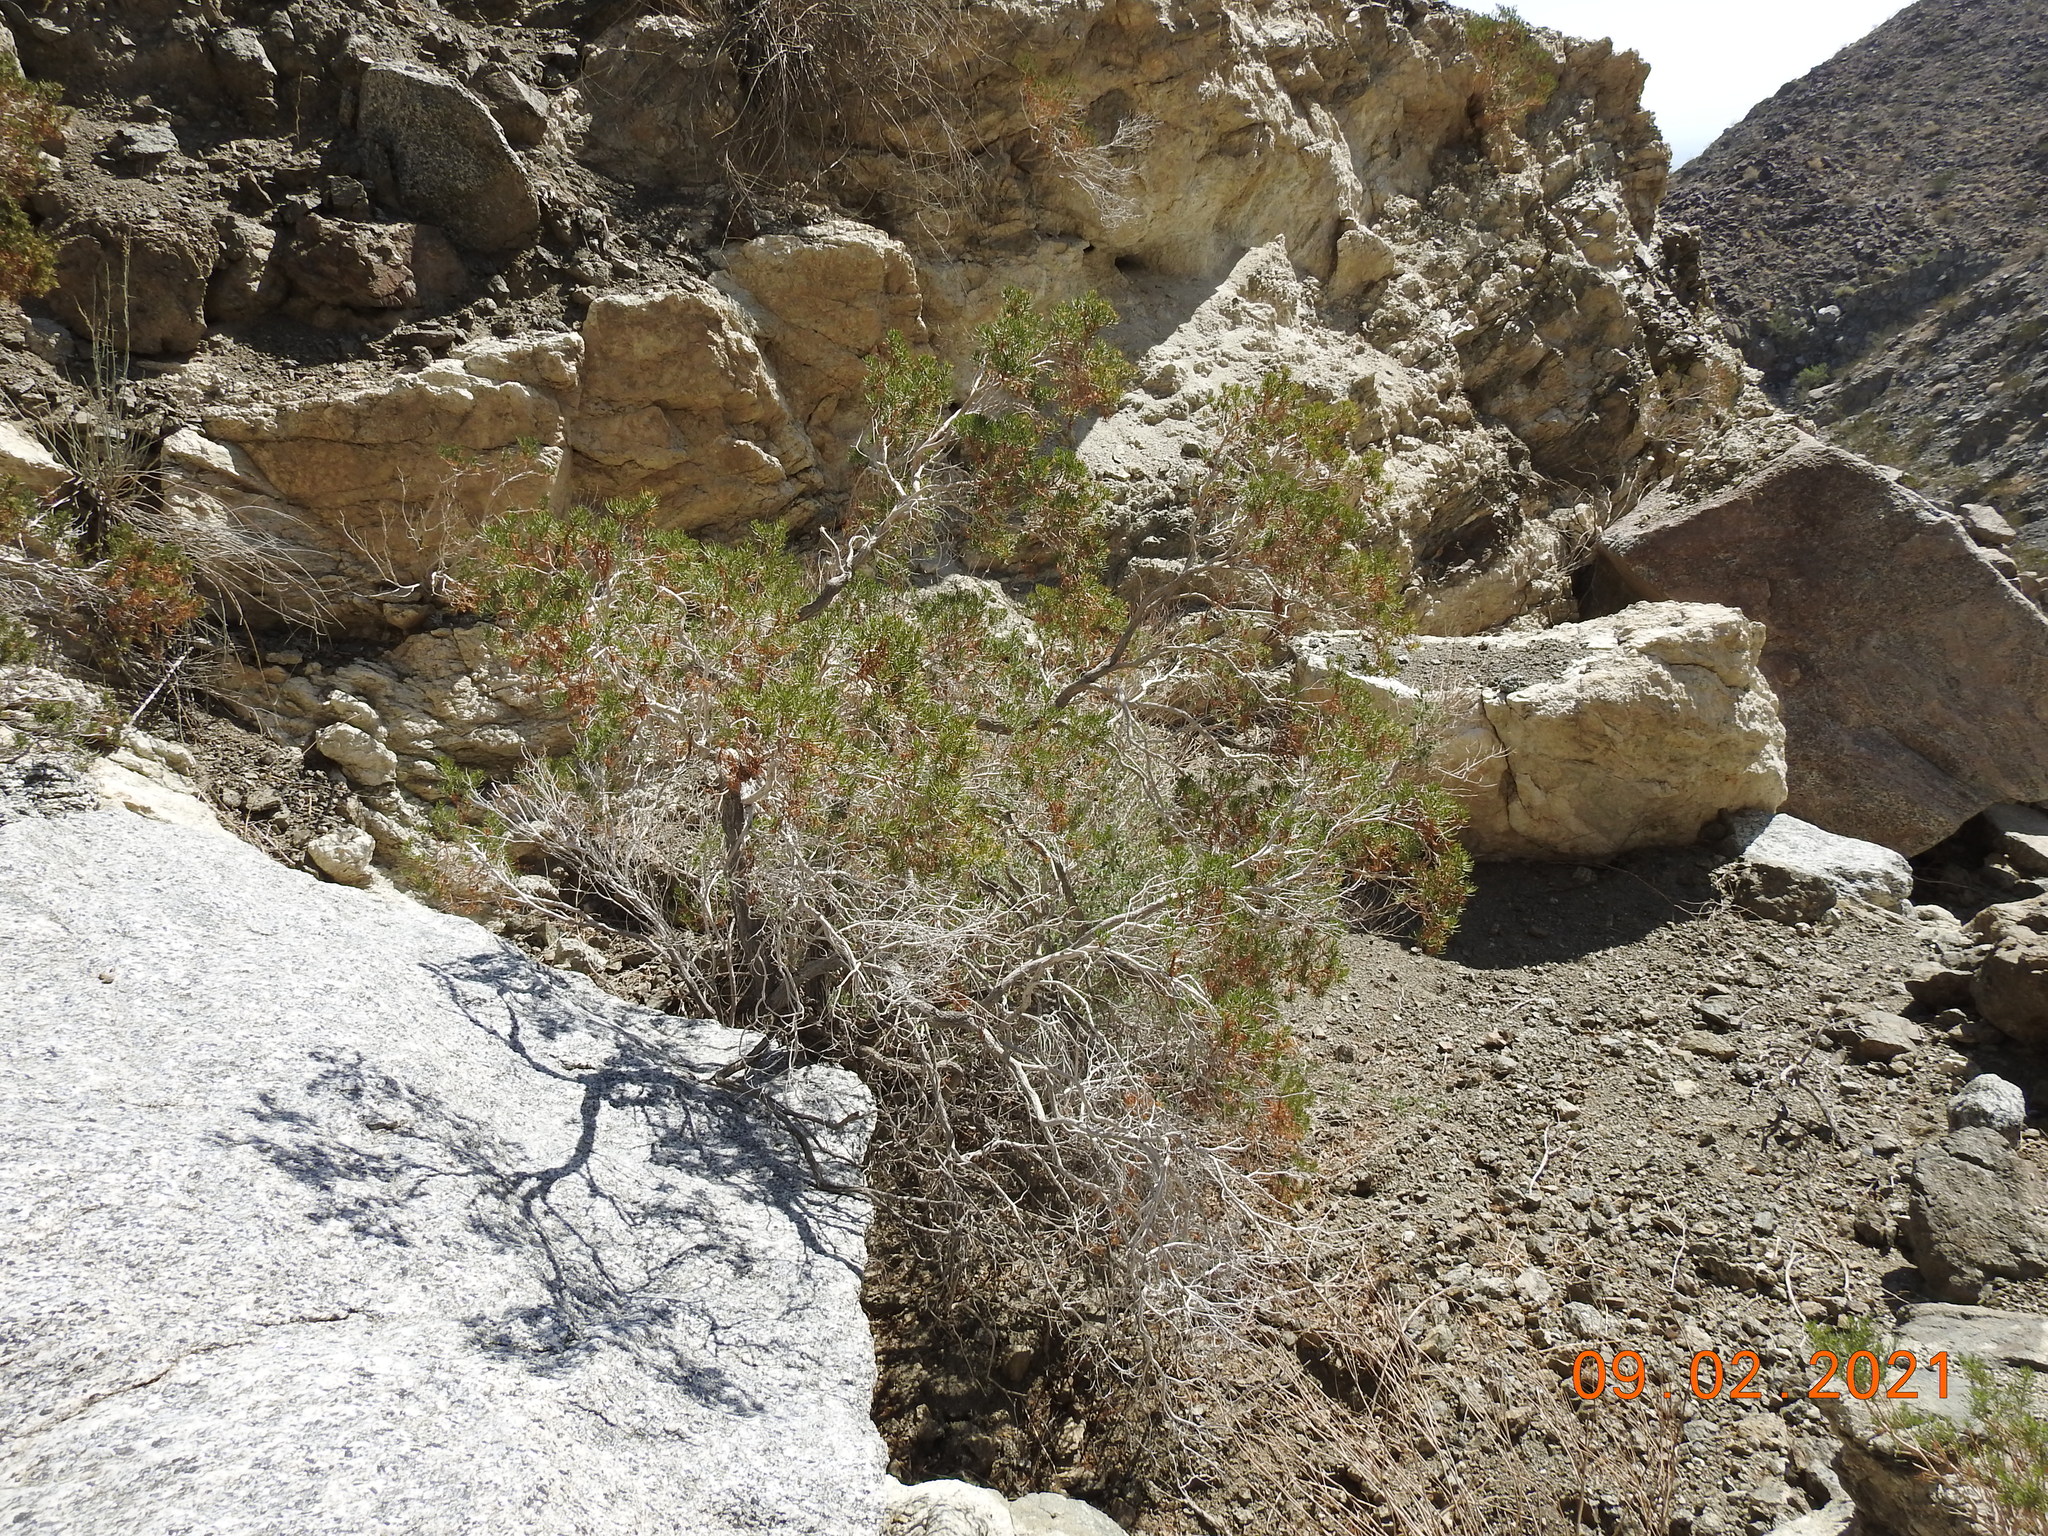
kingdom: Plantae
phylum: Tracheophyta
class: Magnoliopsida
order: Asterales
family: Asteraceae
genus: Peucephyllum
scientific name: Peucephyllum schottii
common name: Pygmy-cedar
